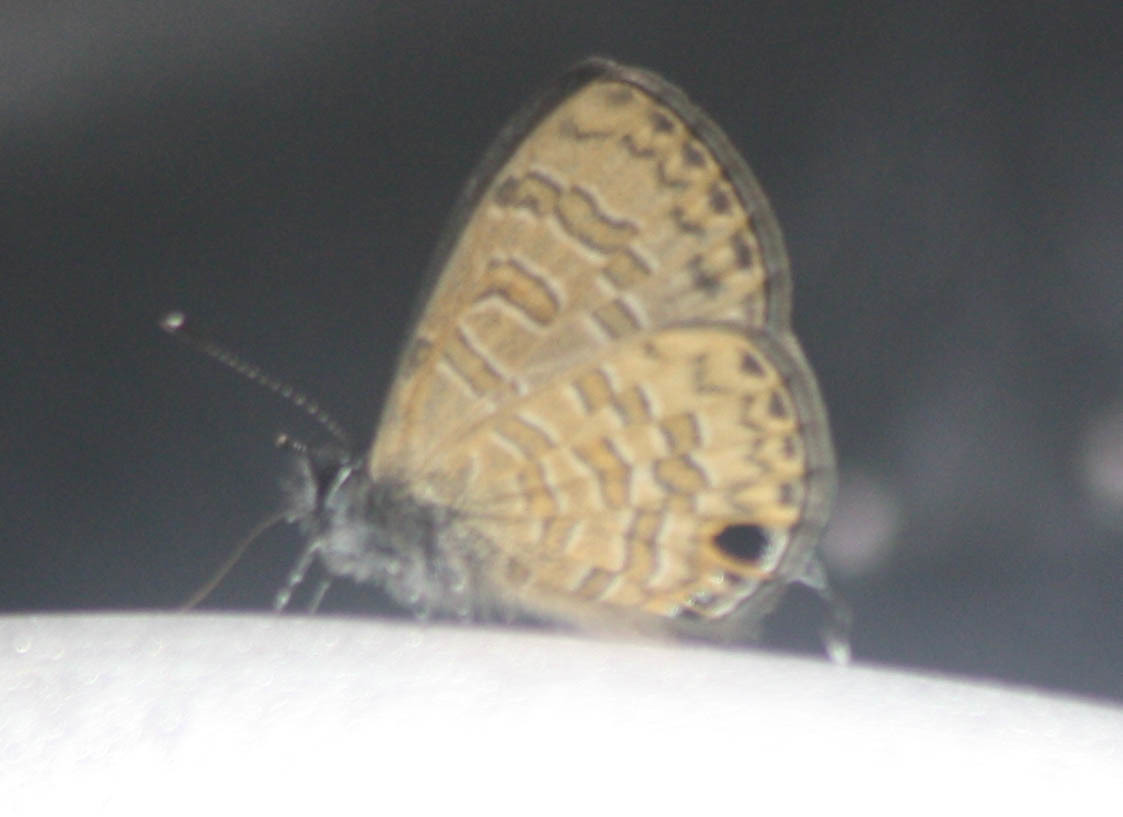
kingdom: Animalia
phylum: Arthropoda
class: Insecta
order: Lepidoptera
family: Lycaenidae
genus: Prosotas
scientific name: Prosotas nora
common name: Common line blue
